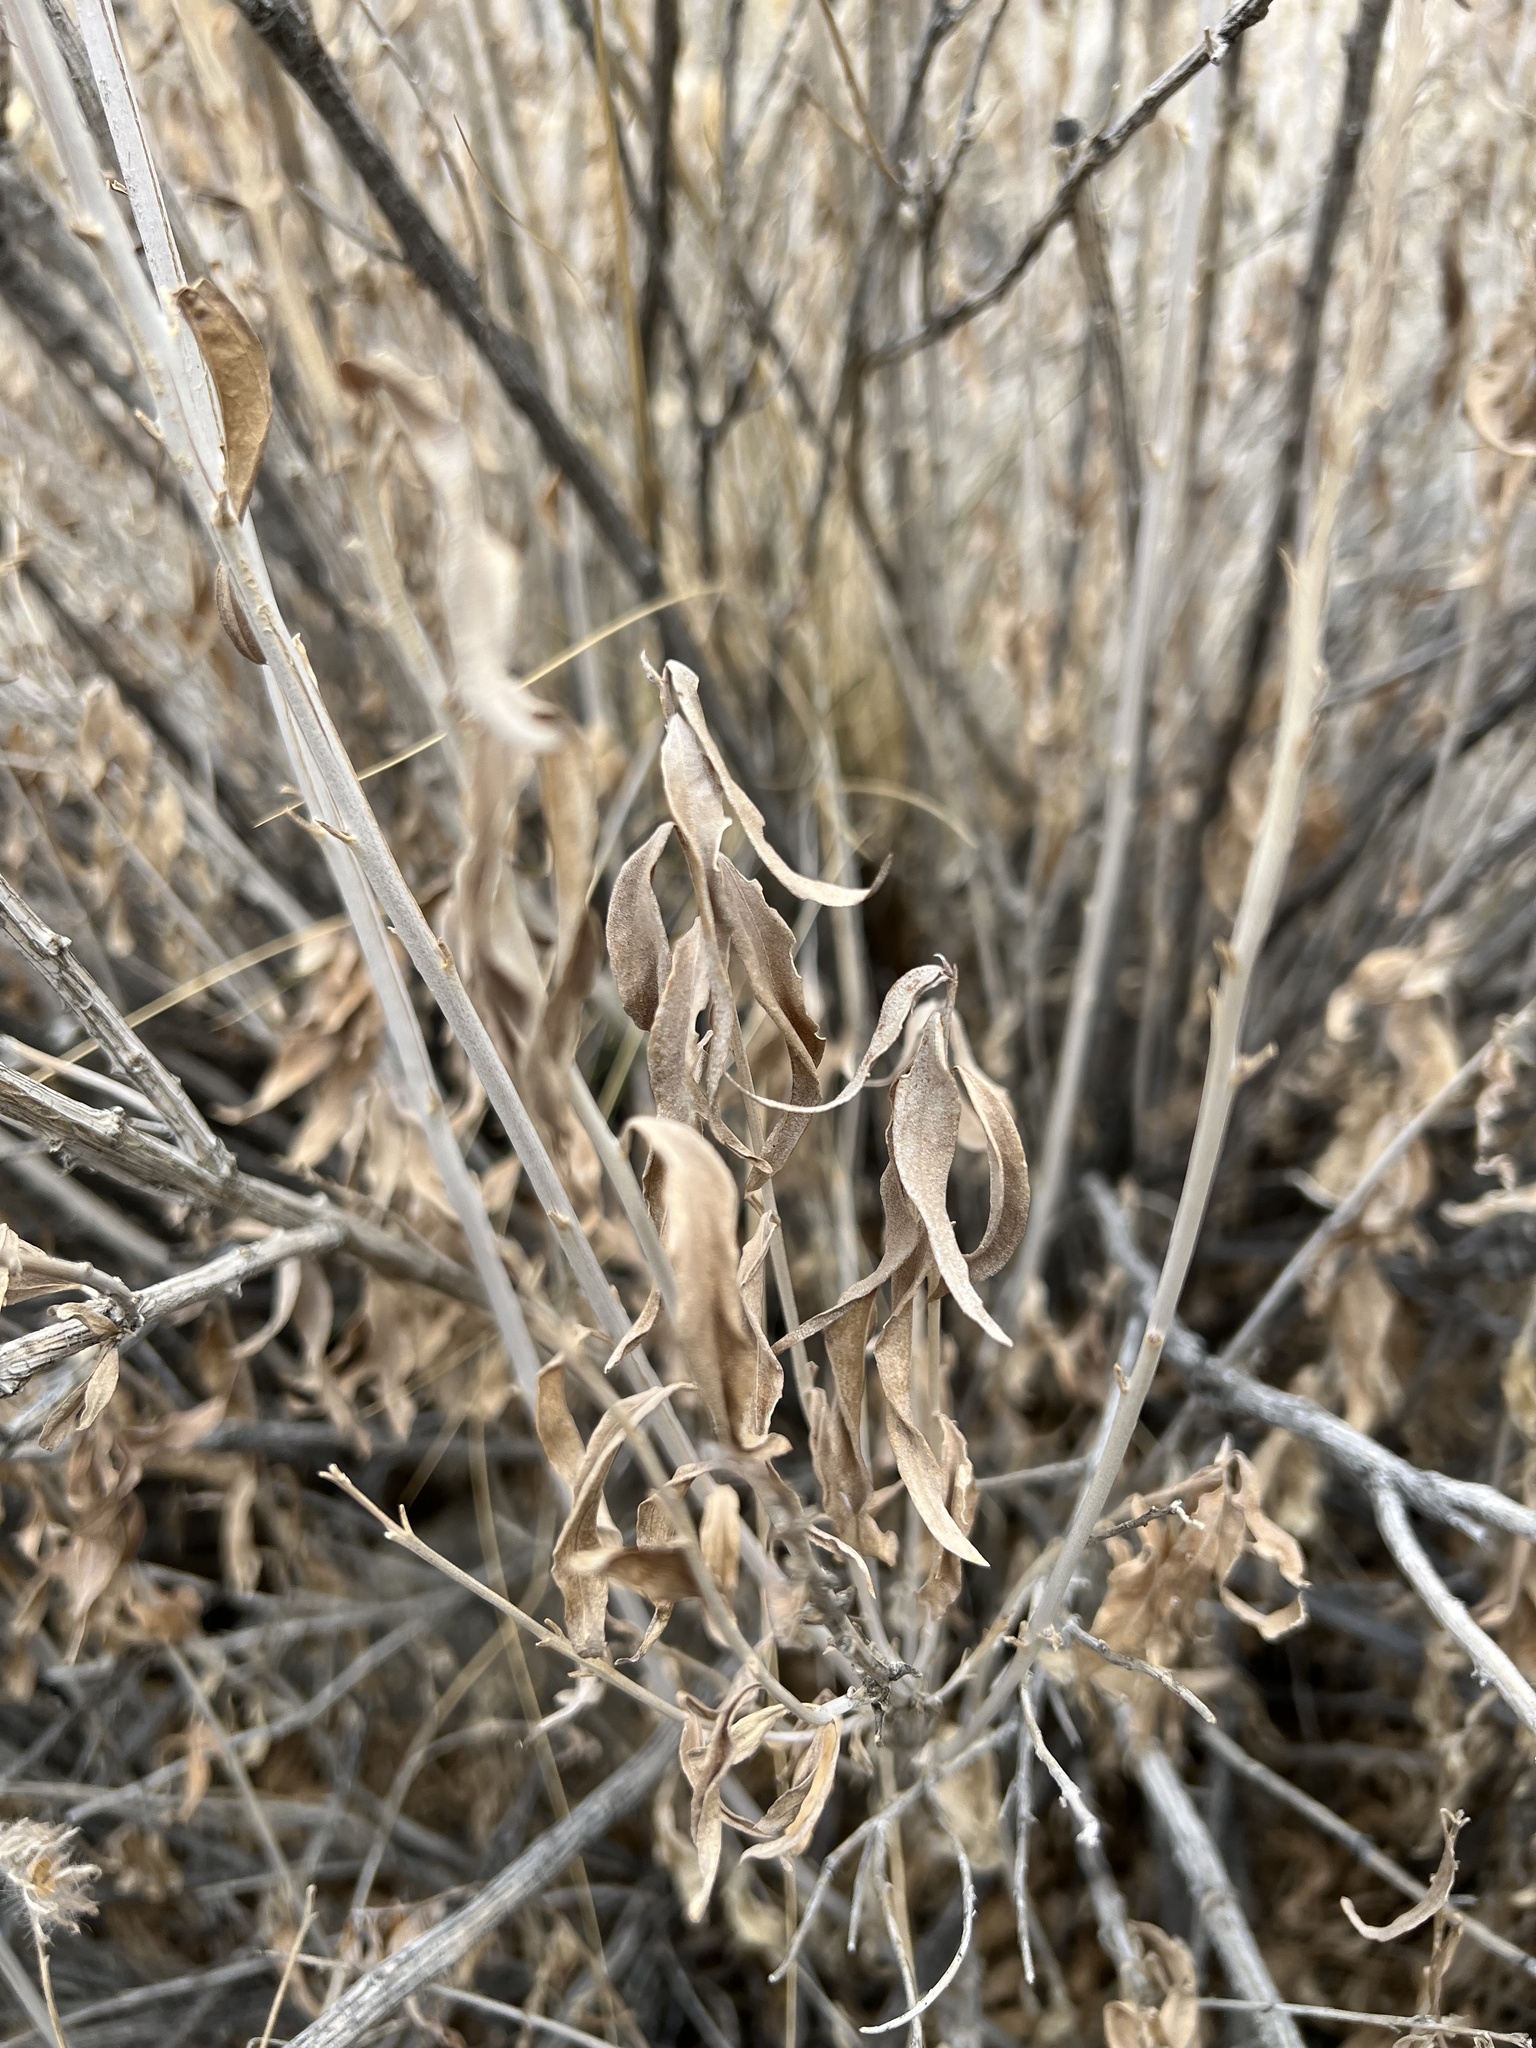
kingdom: Plantae
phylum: Tracheophyta
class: Magnoliopsida
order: Asterales
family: Asteraceae
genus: Brickellia
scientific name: Brickellia longifolia
